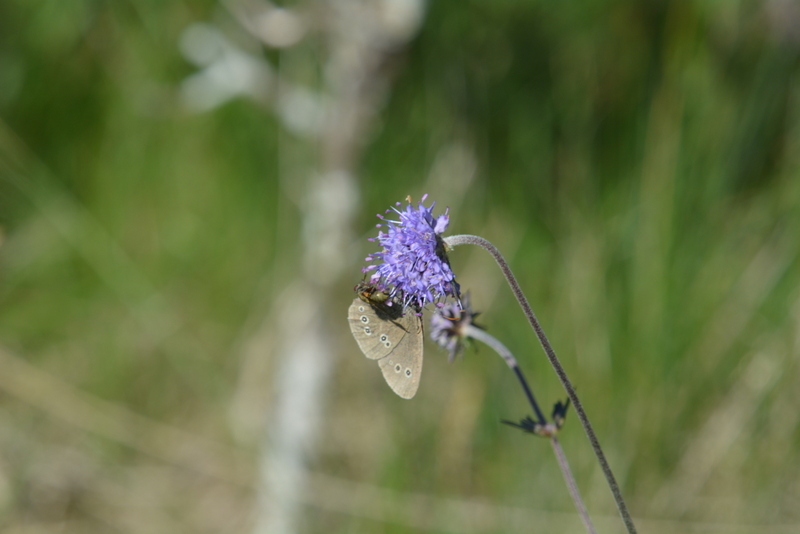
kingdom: Animalia
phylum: Arthropoda
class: Insecta
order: Lepidoptera
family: Nymphalidae
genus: Aphantopus
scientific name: Aphantopus hyperantus
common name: Ringlet
